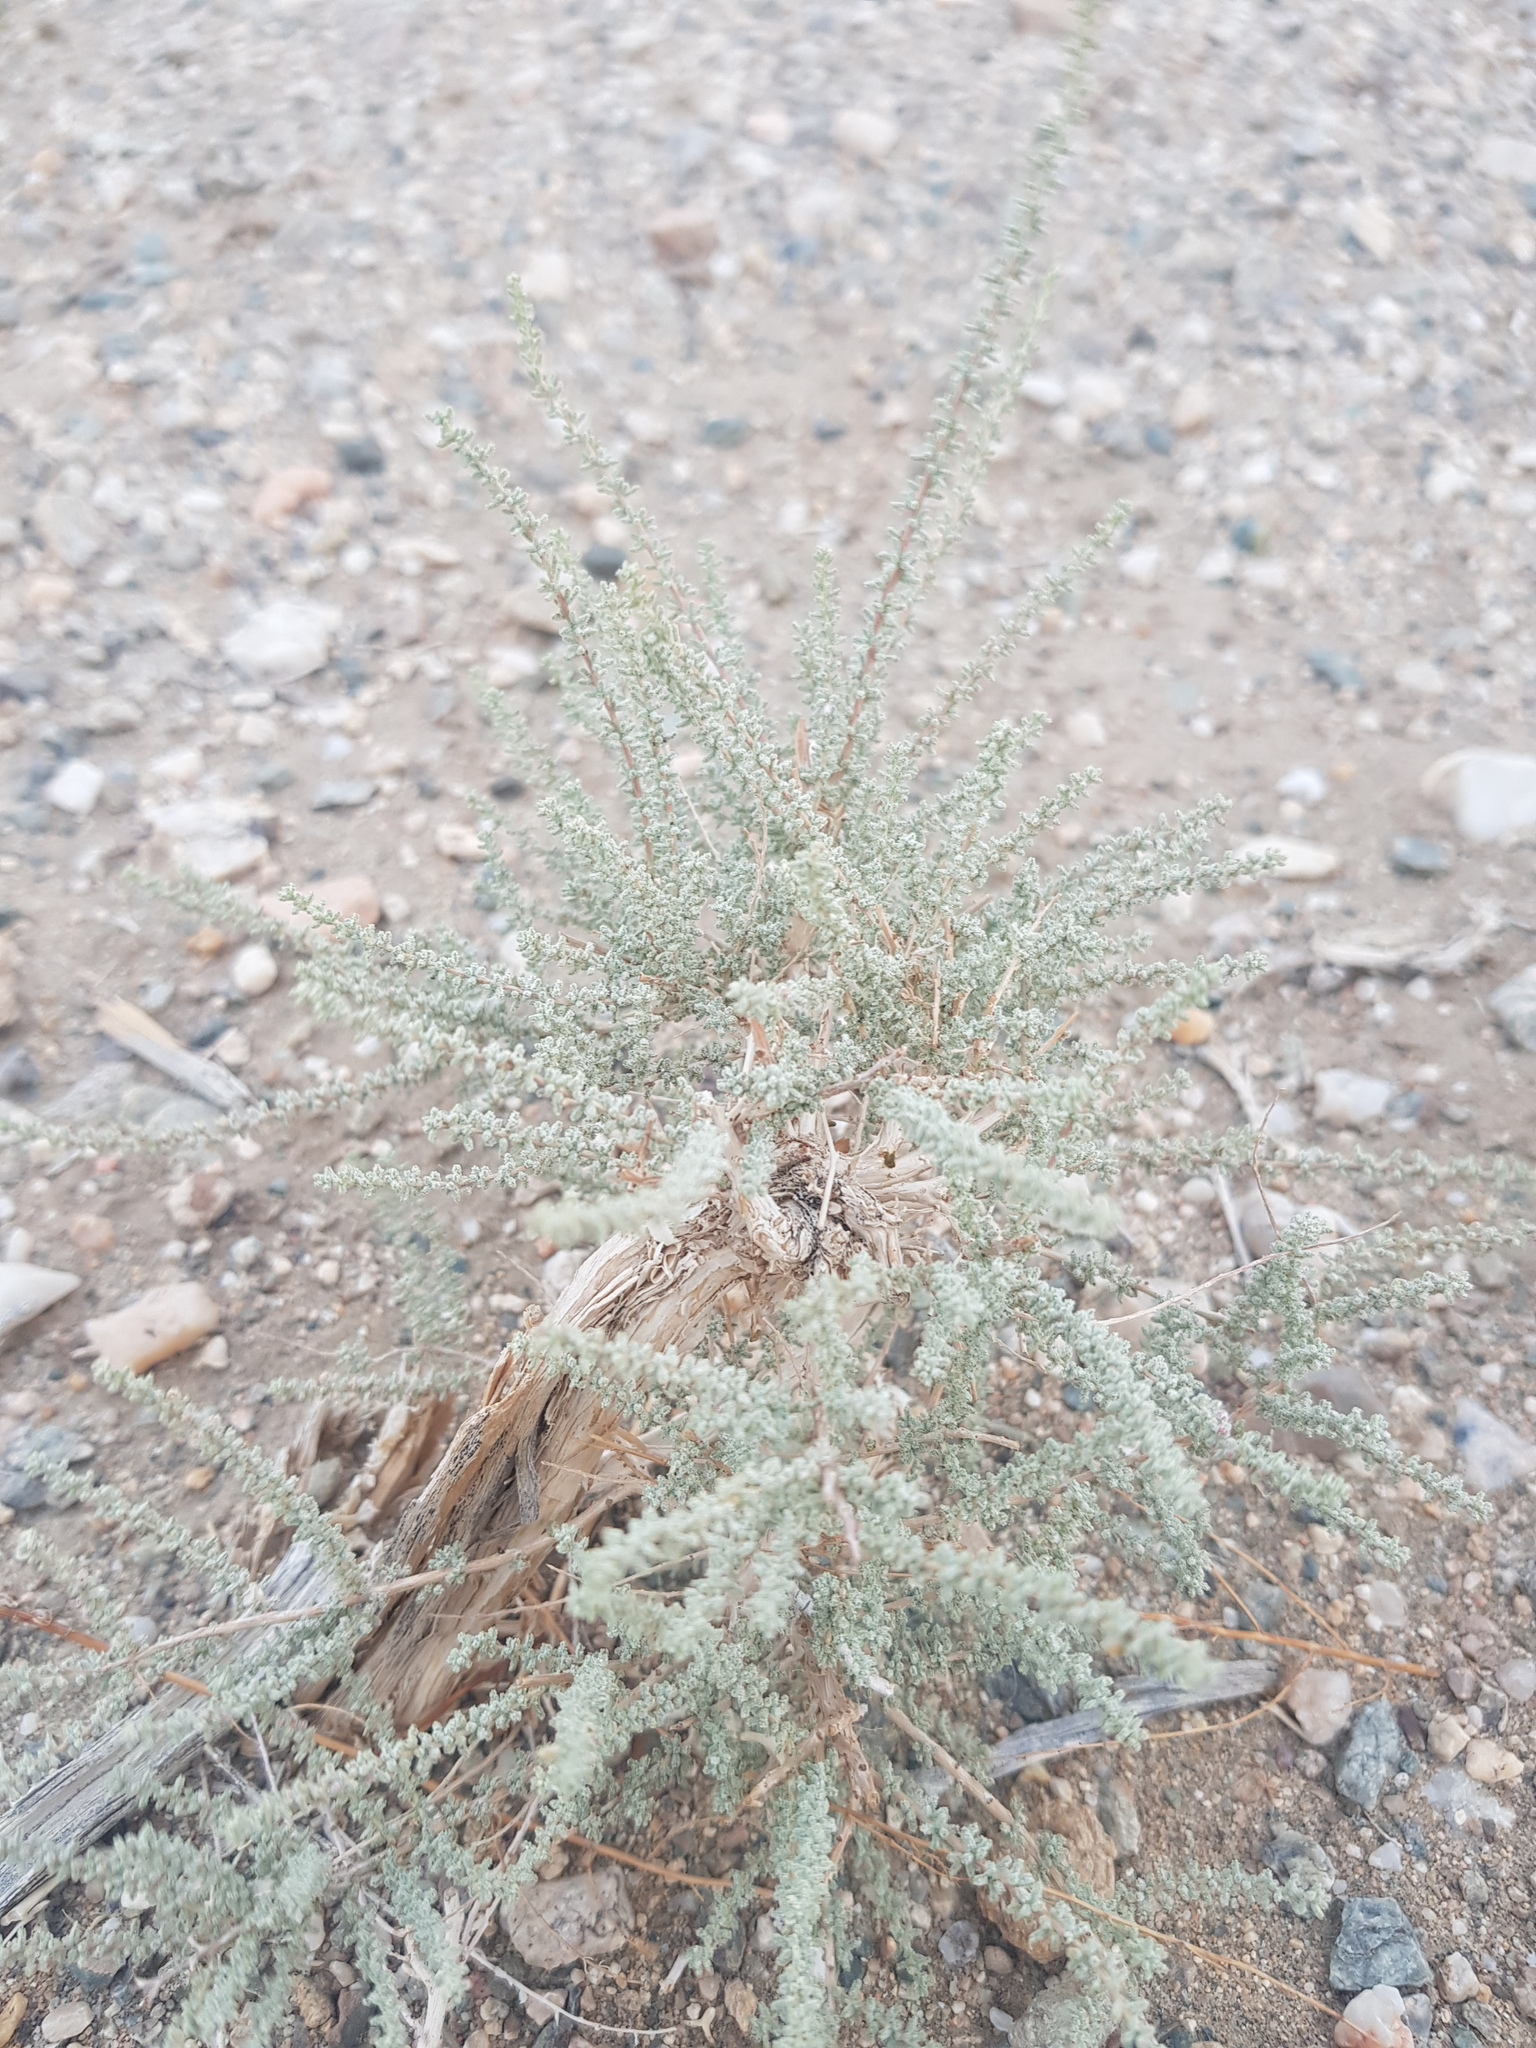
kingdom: Plantae
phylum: Tracheophyta
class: Magnoliopsida
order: Caryophyllales
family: Tamaricaceae
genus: Reaumuria
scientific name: Reaumuria songarica
